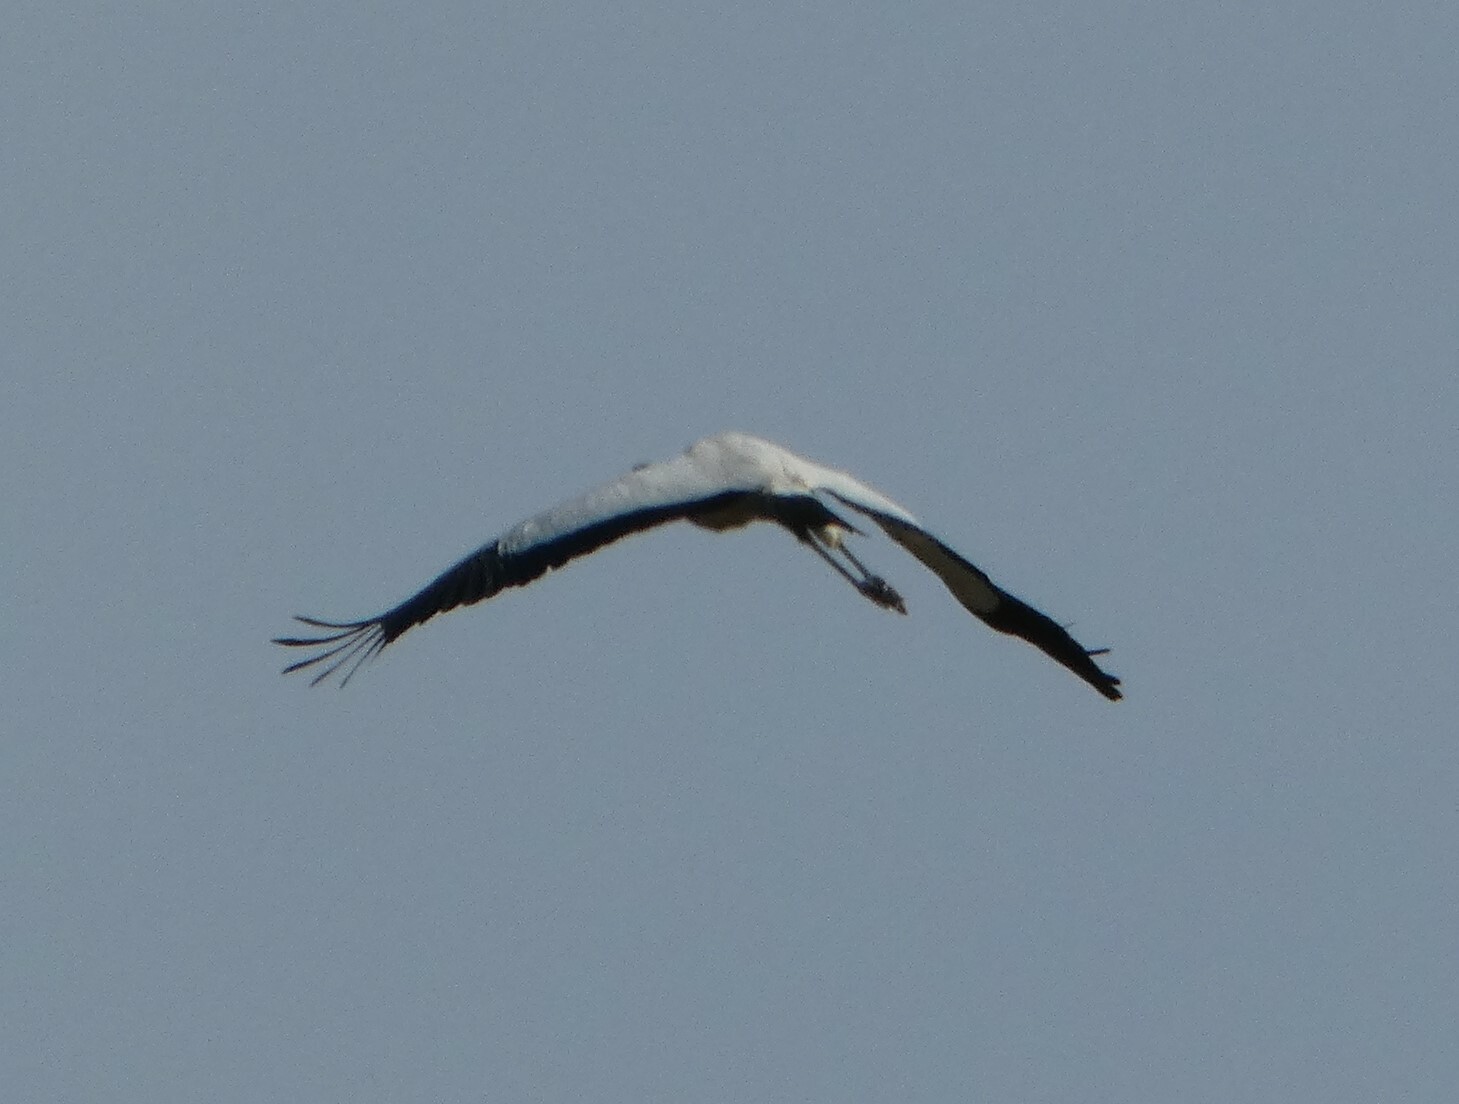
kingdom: Animalia
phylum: Chordata
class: Aves
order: Ciconiiformes
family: Ciconiidae
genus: Mycteria
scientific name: Mycteria americana
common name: Wood stork
